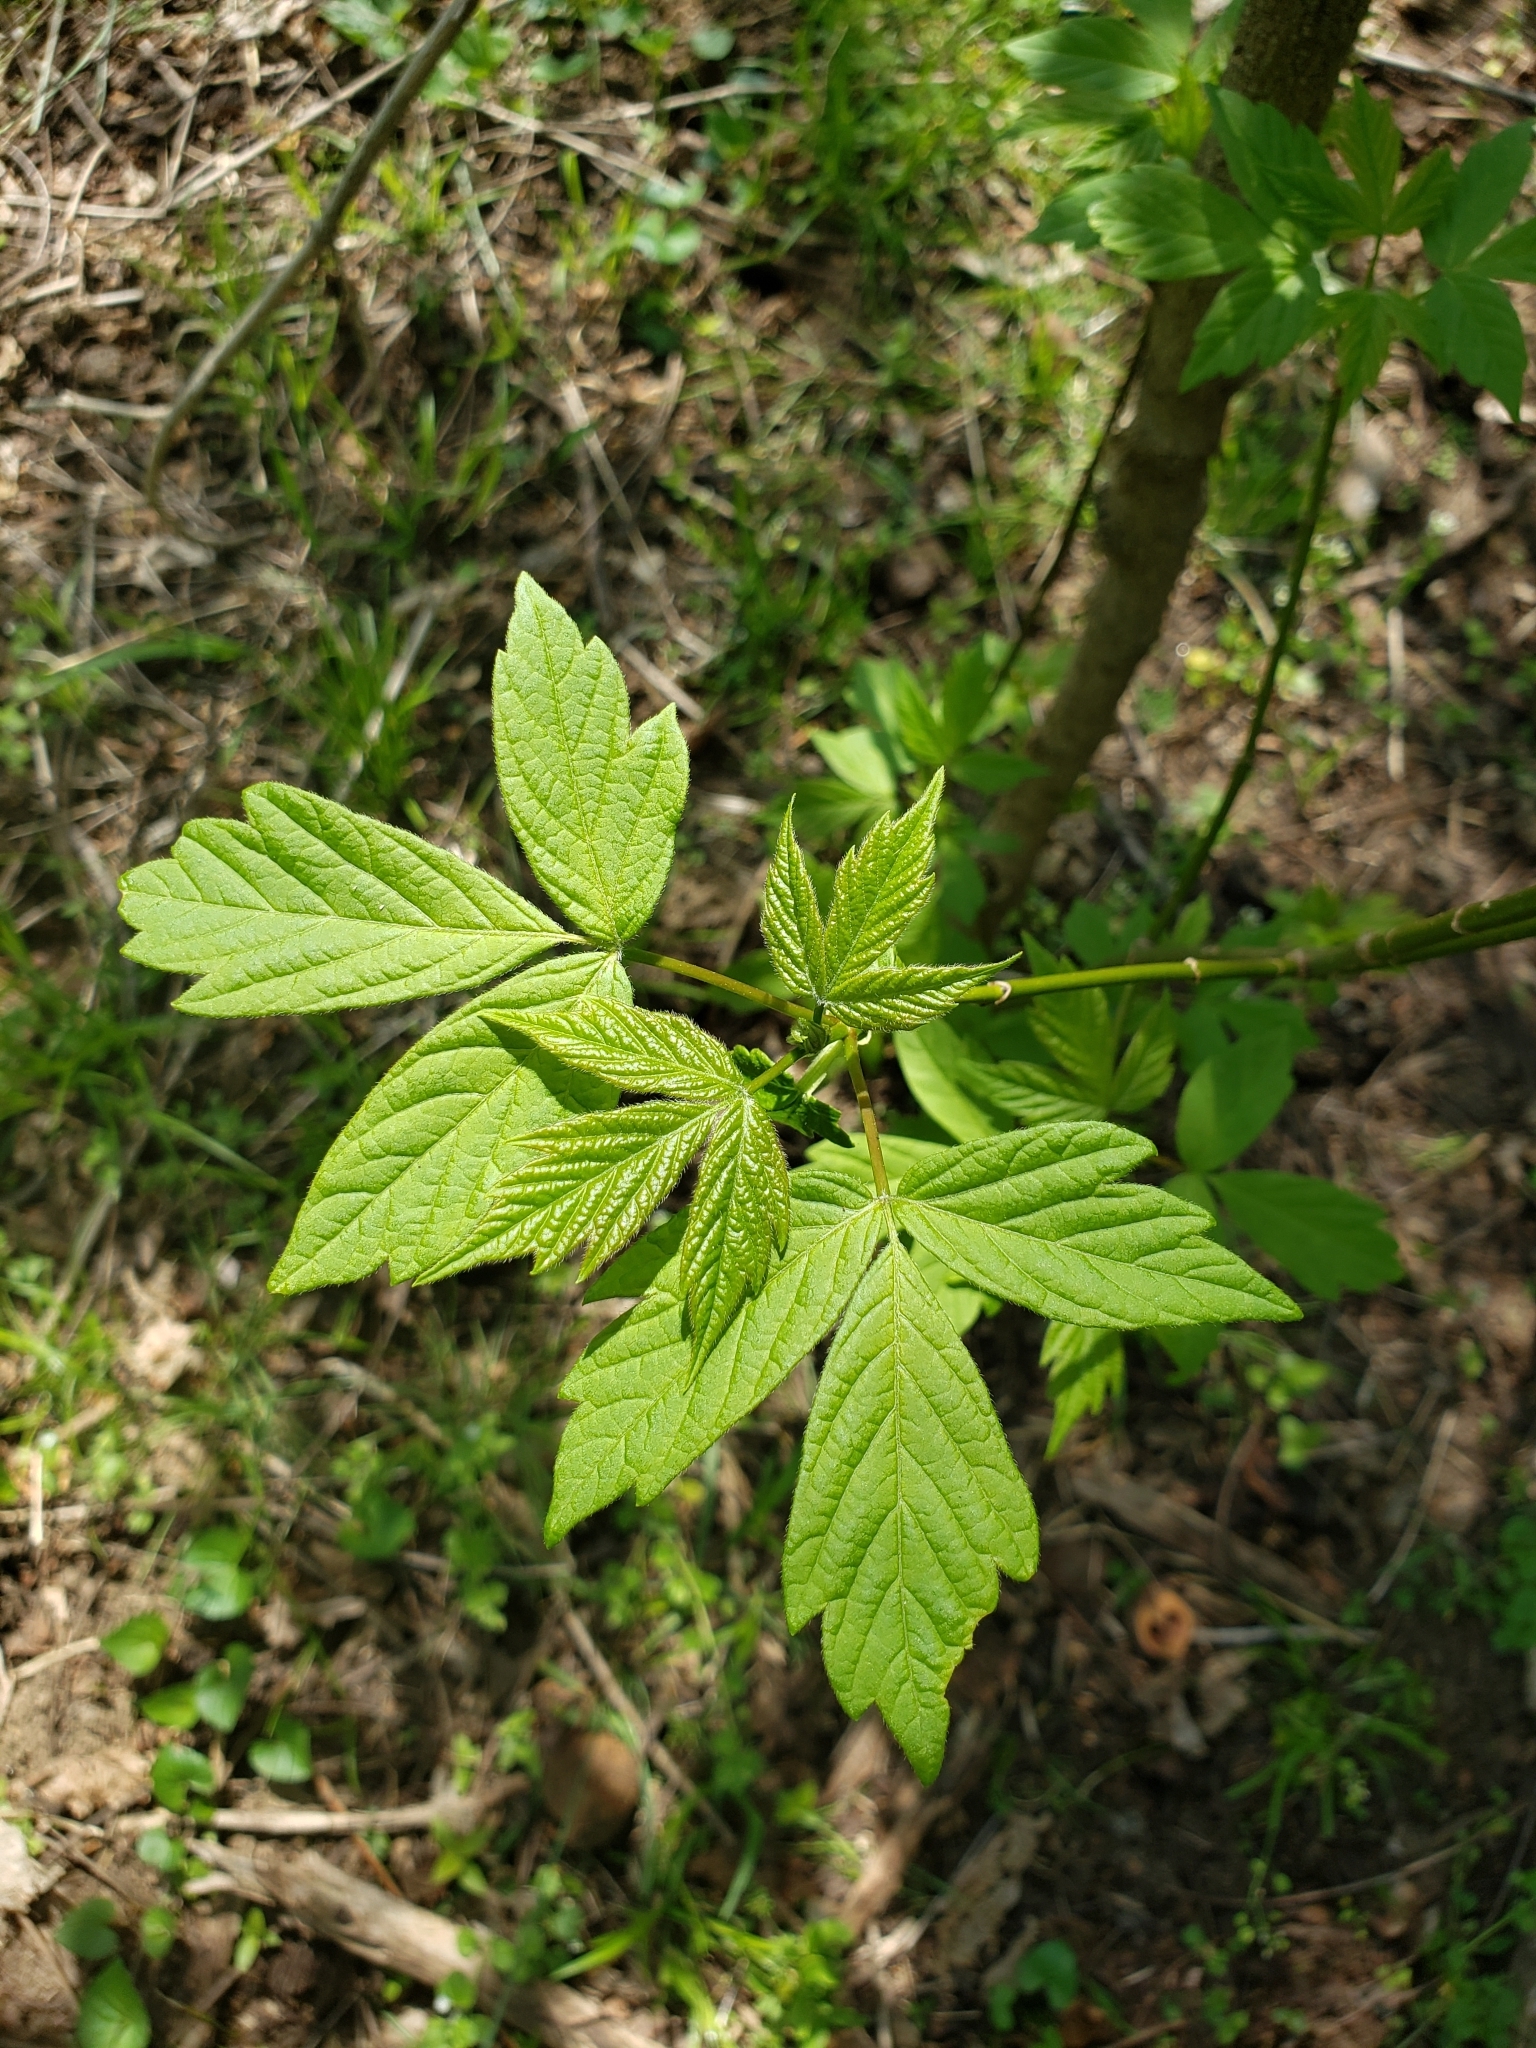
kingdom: Plantae
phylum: Tracheophyta
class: Magnoliopsida
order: Sapindales
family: Sapindaceae
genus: Acer
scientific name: Acer negundo
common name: Ashleaf maple
